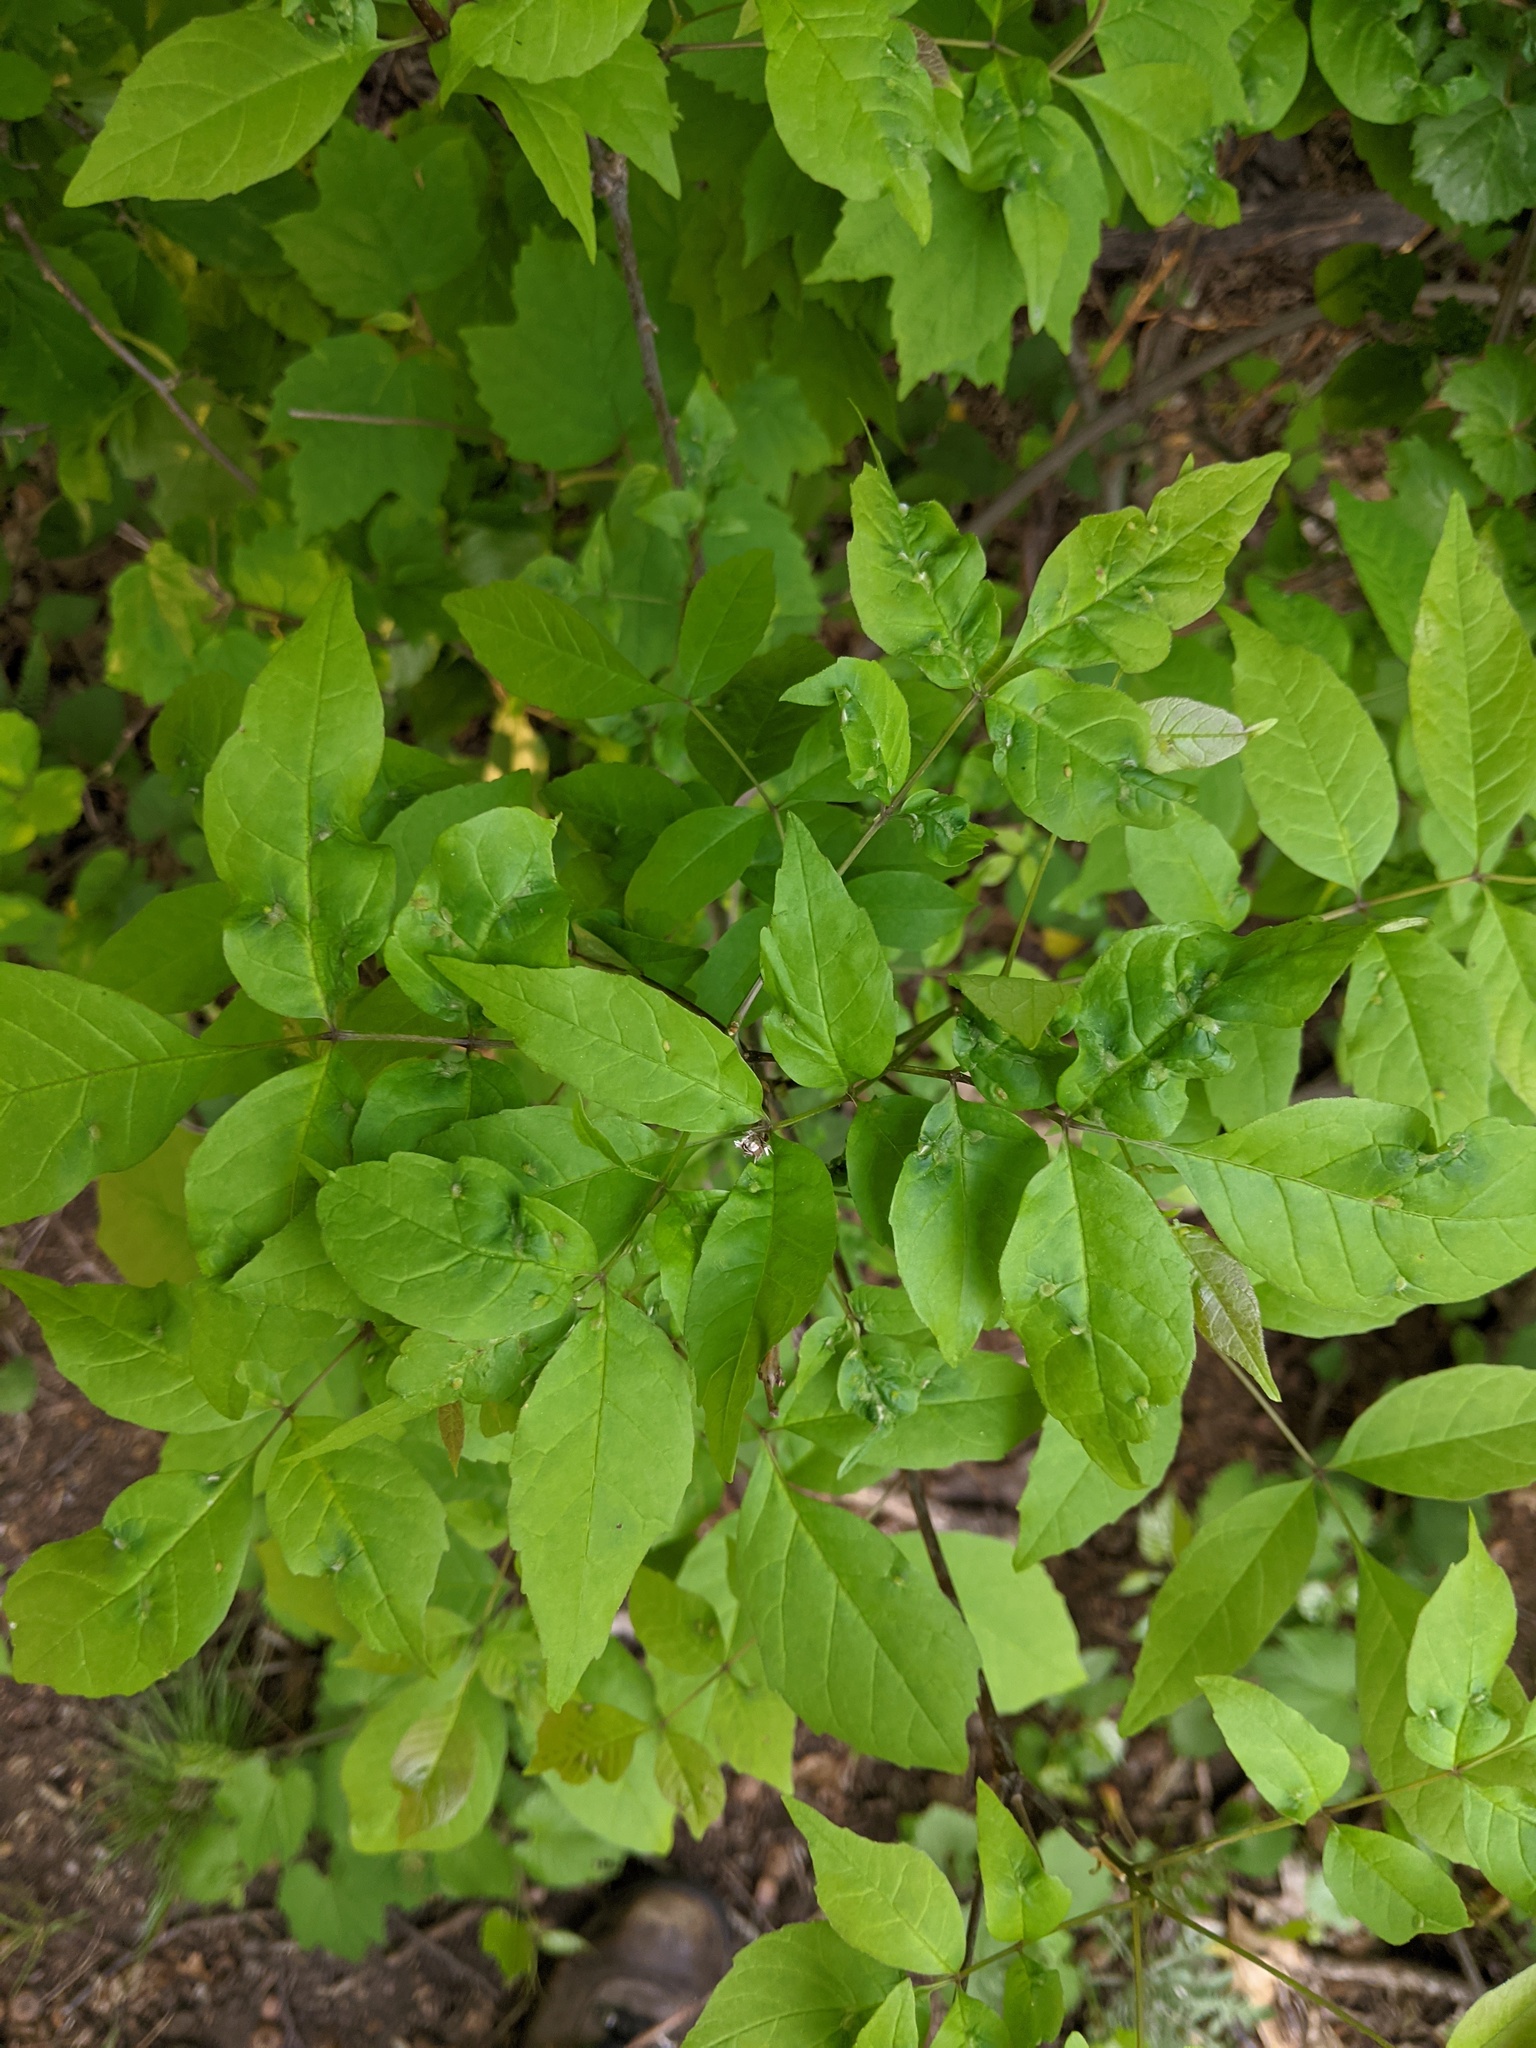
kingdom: Animalia
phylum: Arthropoda
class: Arachnida
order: Trombidiformes
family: Eriophyidae
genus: Aceria
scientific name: Aceria fraxinicola
